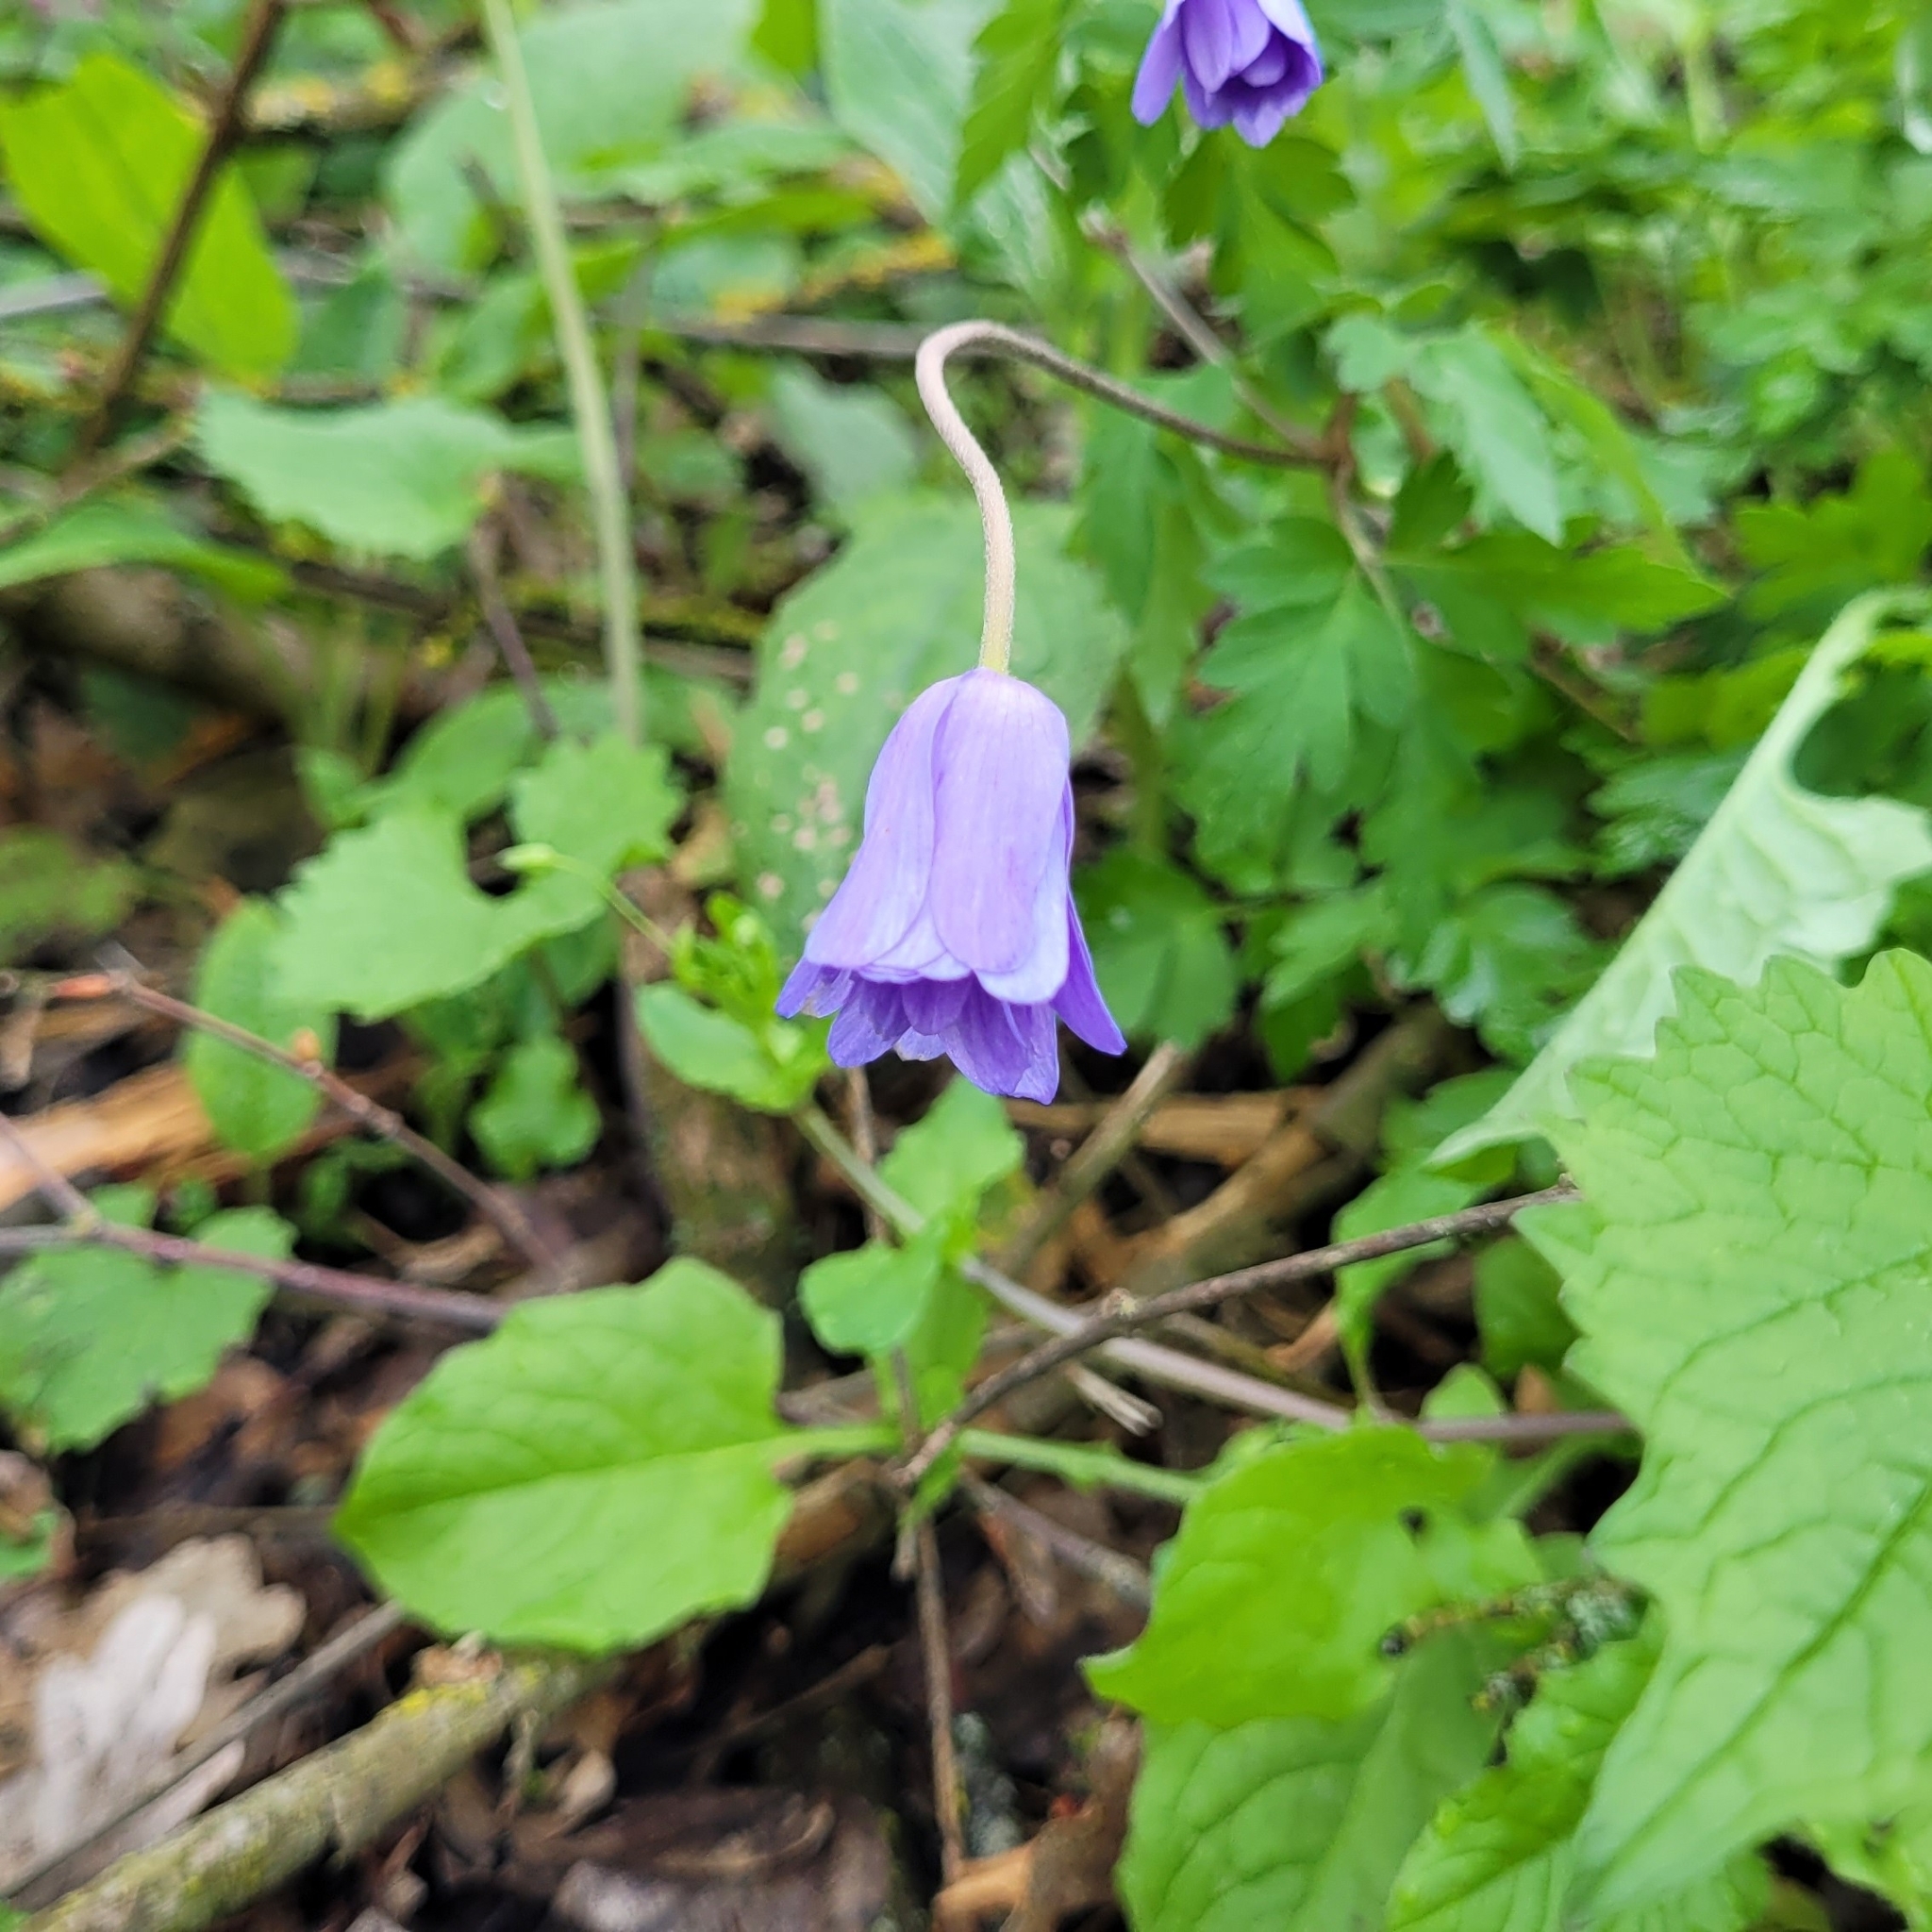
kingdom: Plantae
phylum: Tracheophyta
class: Magnoliopsida
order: Ranunculales
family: Ranunculaceae
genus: Anemone
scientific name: Anemone apennina
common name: Blue anemone
